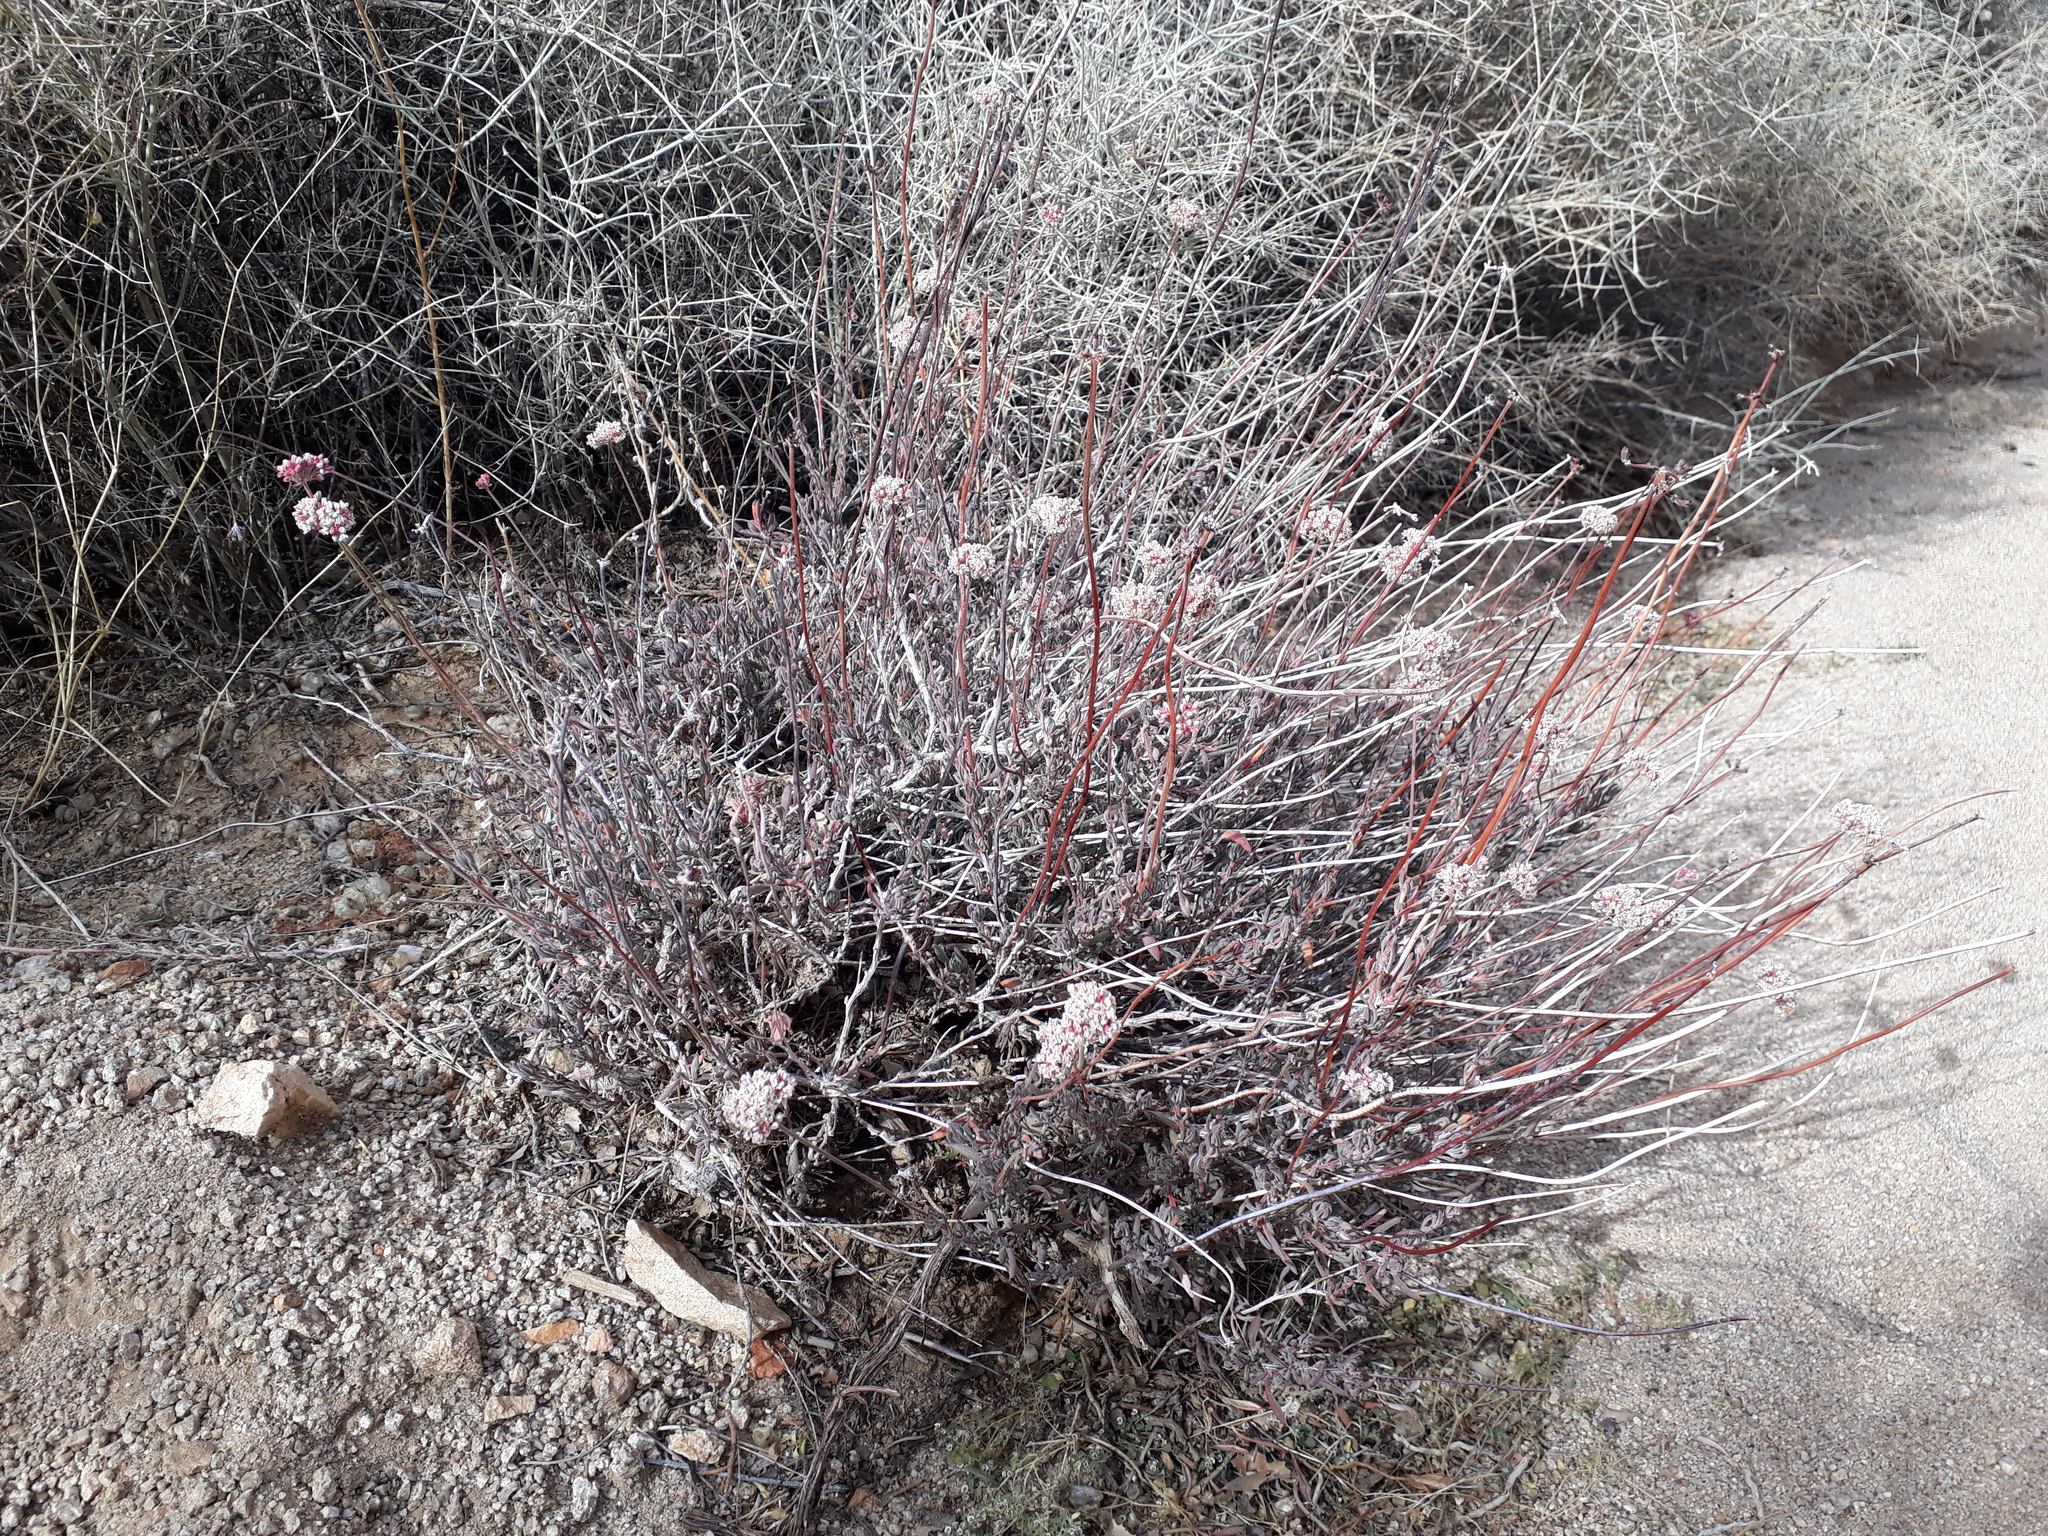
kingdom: Plantae
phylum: Tracheophyta
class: Magnoliopsida
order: Caryophyllales
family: Polygonaceae
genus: Eriogonum
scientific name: Eriogonum fasciculatum
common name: California wild buckwheat
